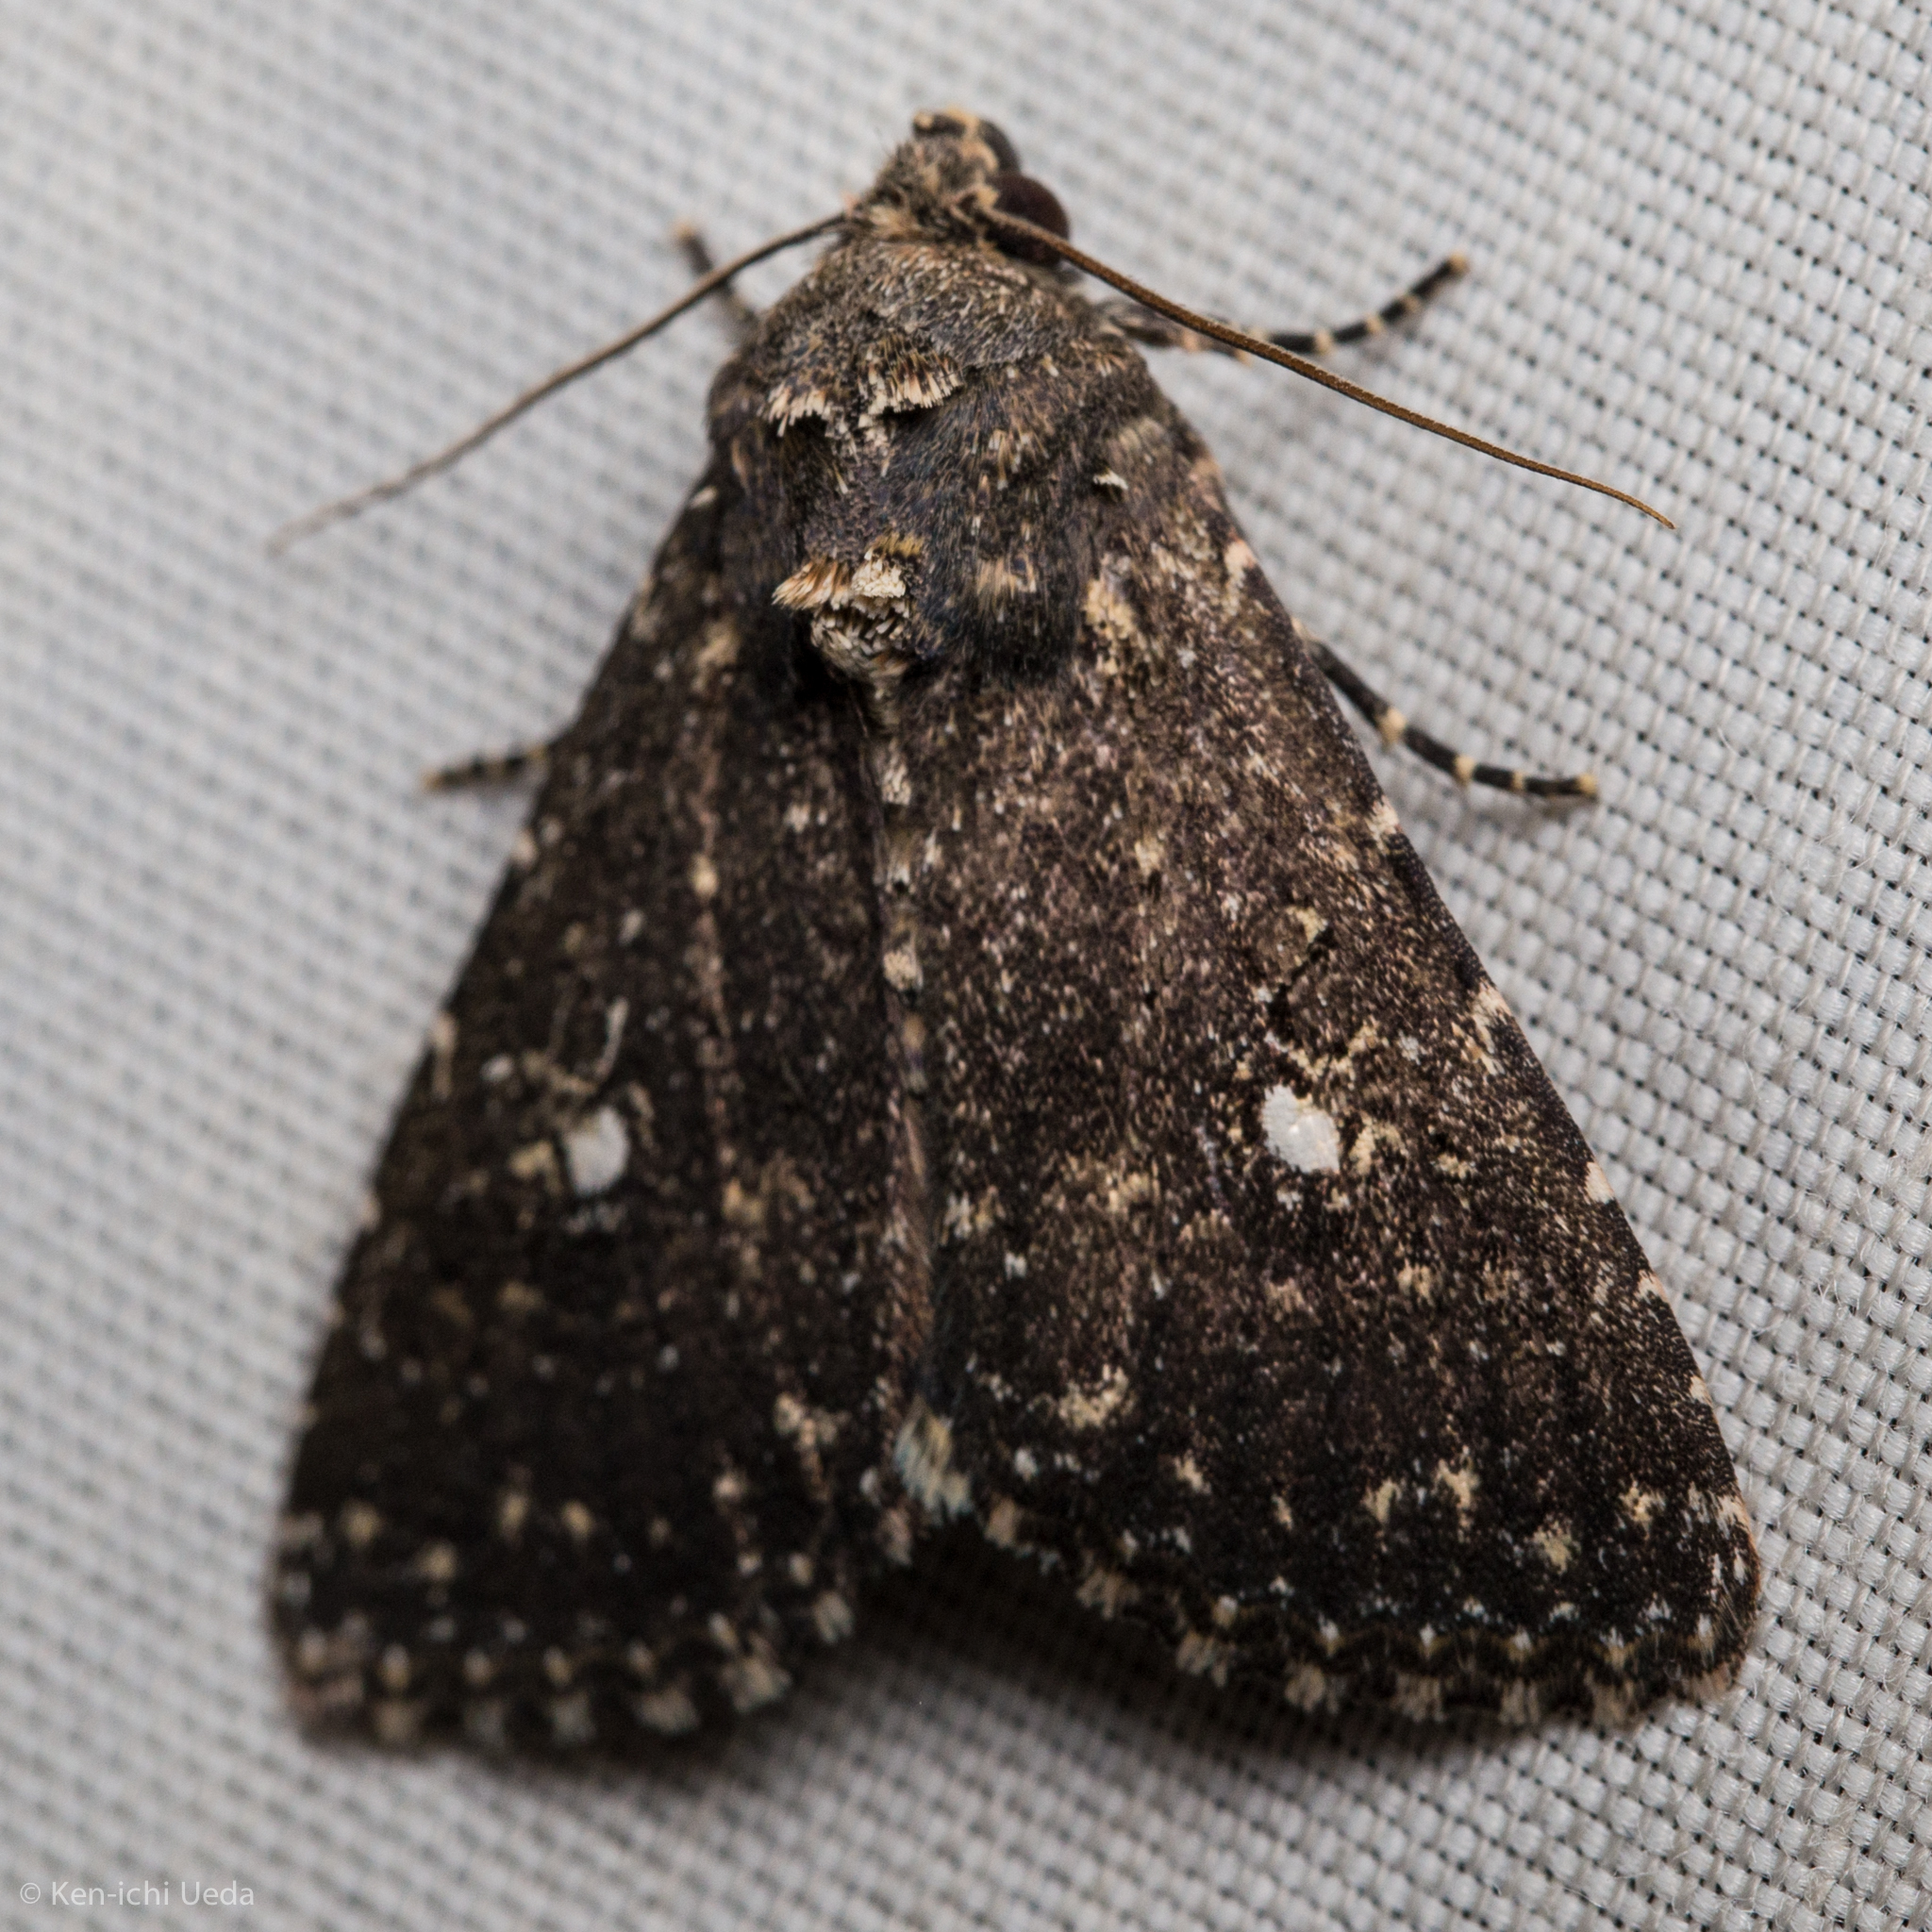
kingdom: Animalia
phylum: Arthropoda
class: Insecta
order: Lepidoptera
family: Noctuidae
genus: Condica
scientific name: Condica albolabes
